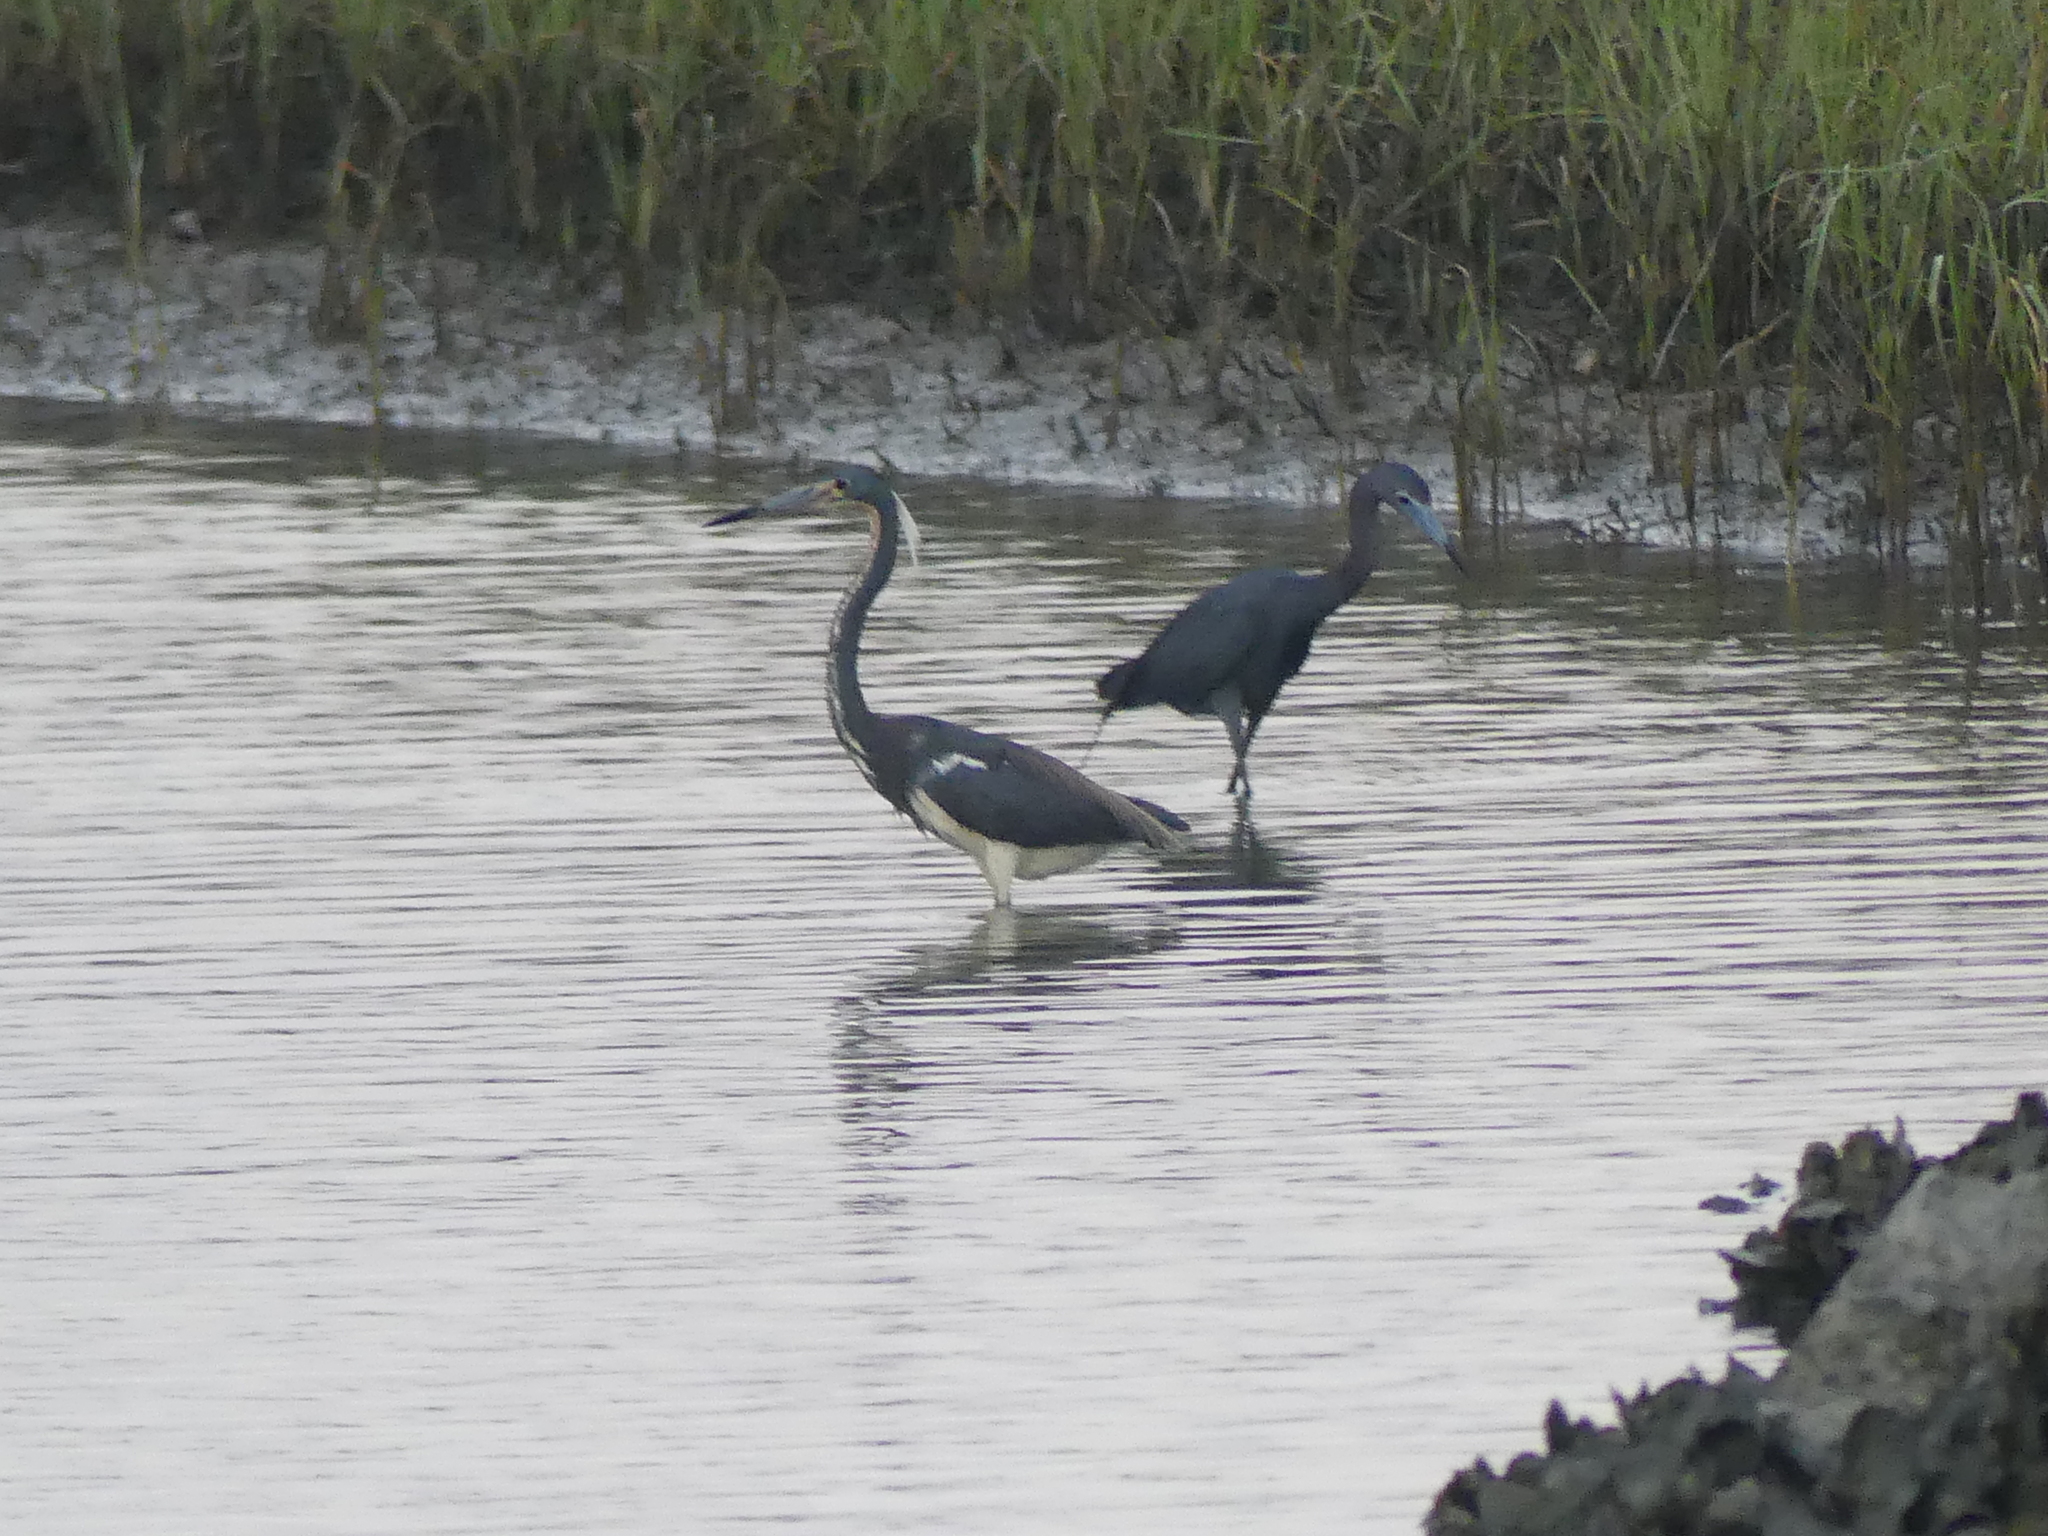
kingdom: Animalia
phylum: Chordata
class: Aves
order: Pelecaniformes
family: Ardeidae
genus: Egretta
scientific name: Egretta tricolor
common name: Tricolored heron
